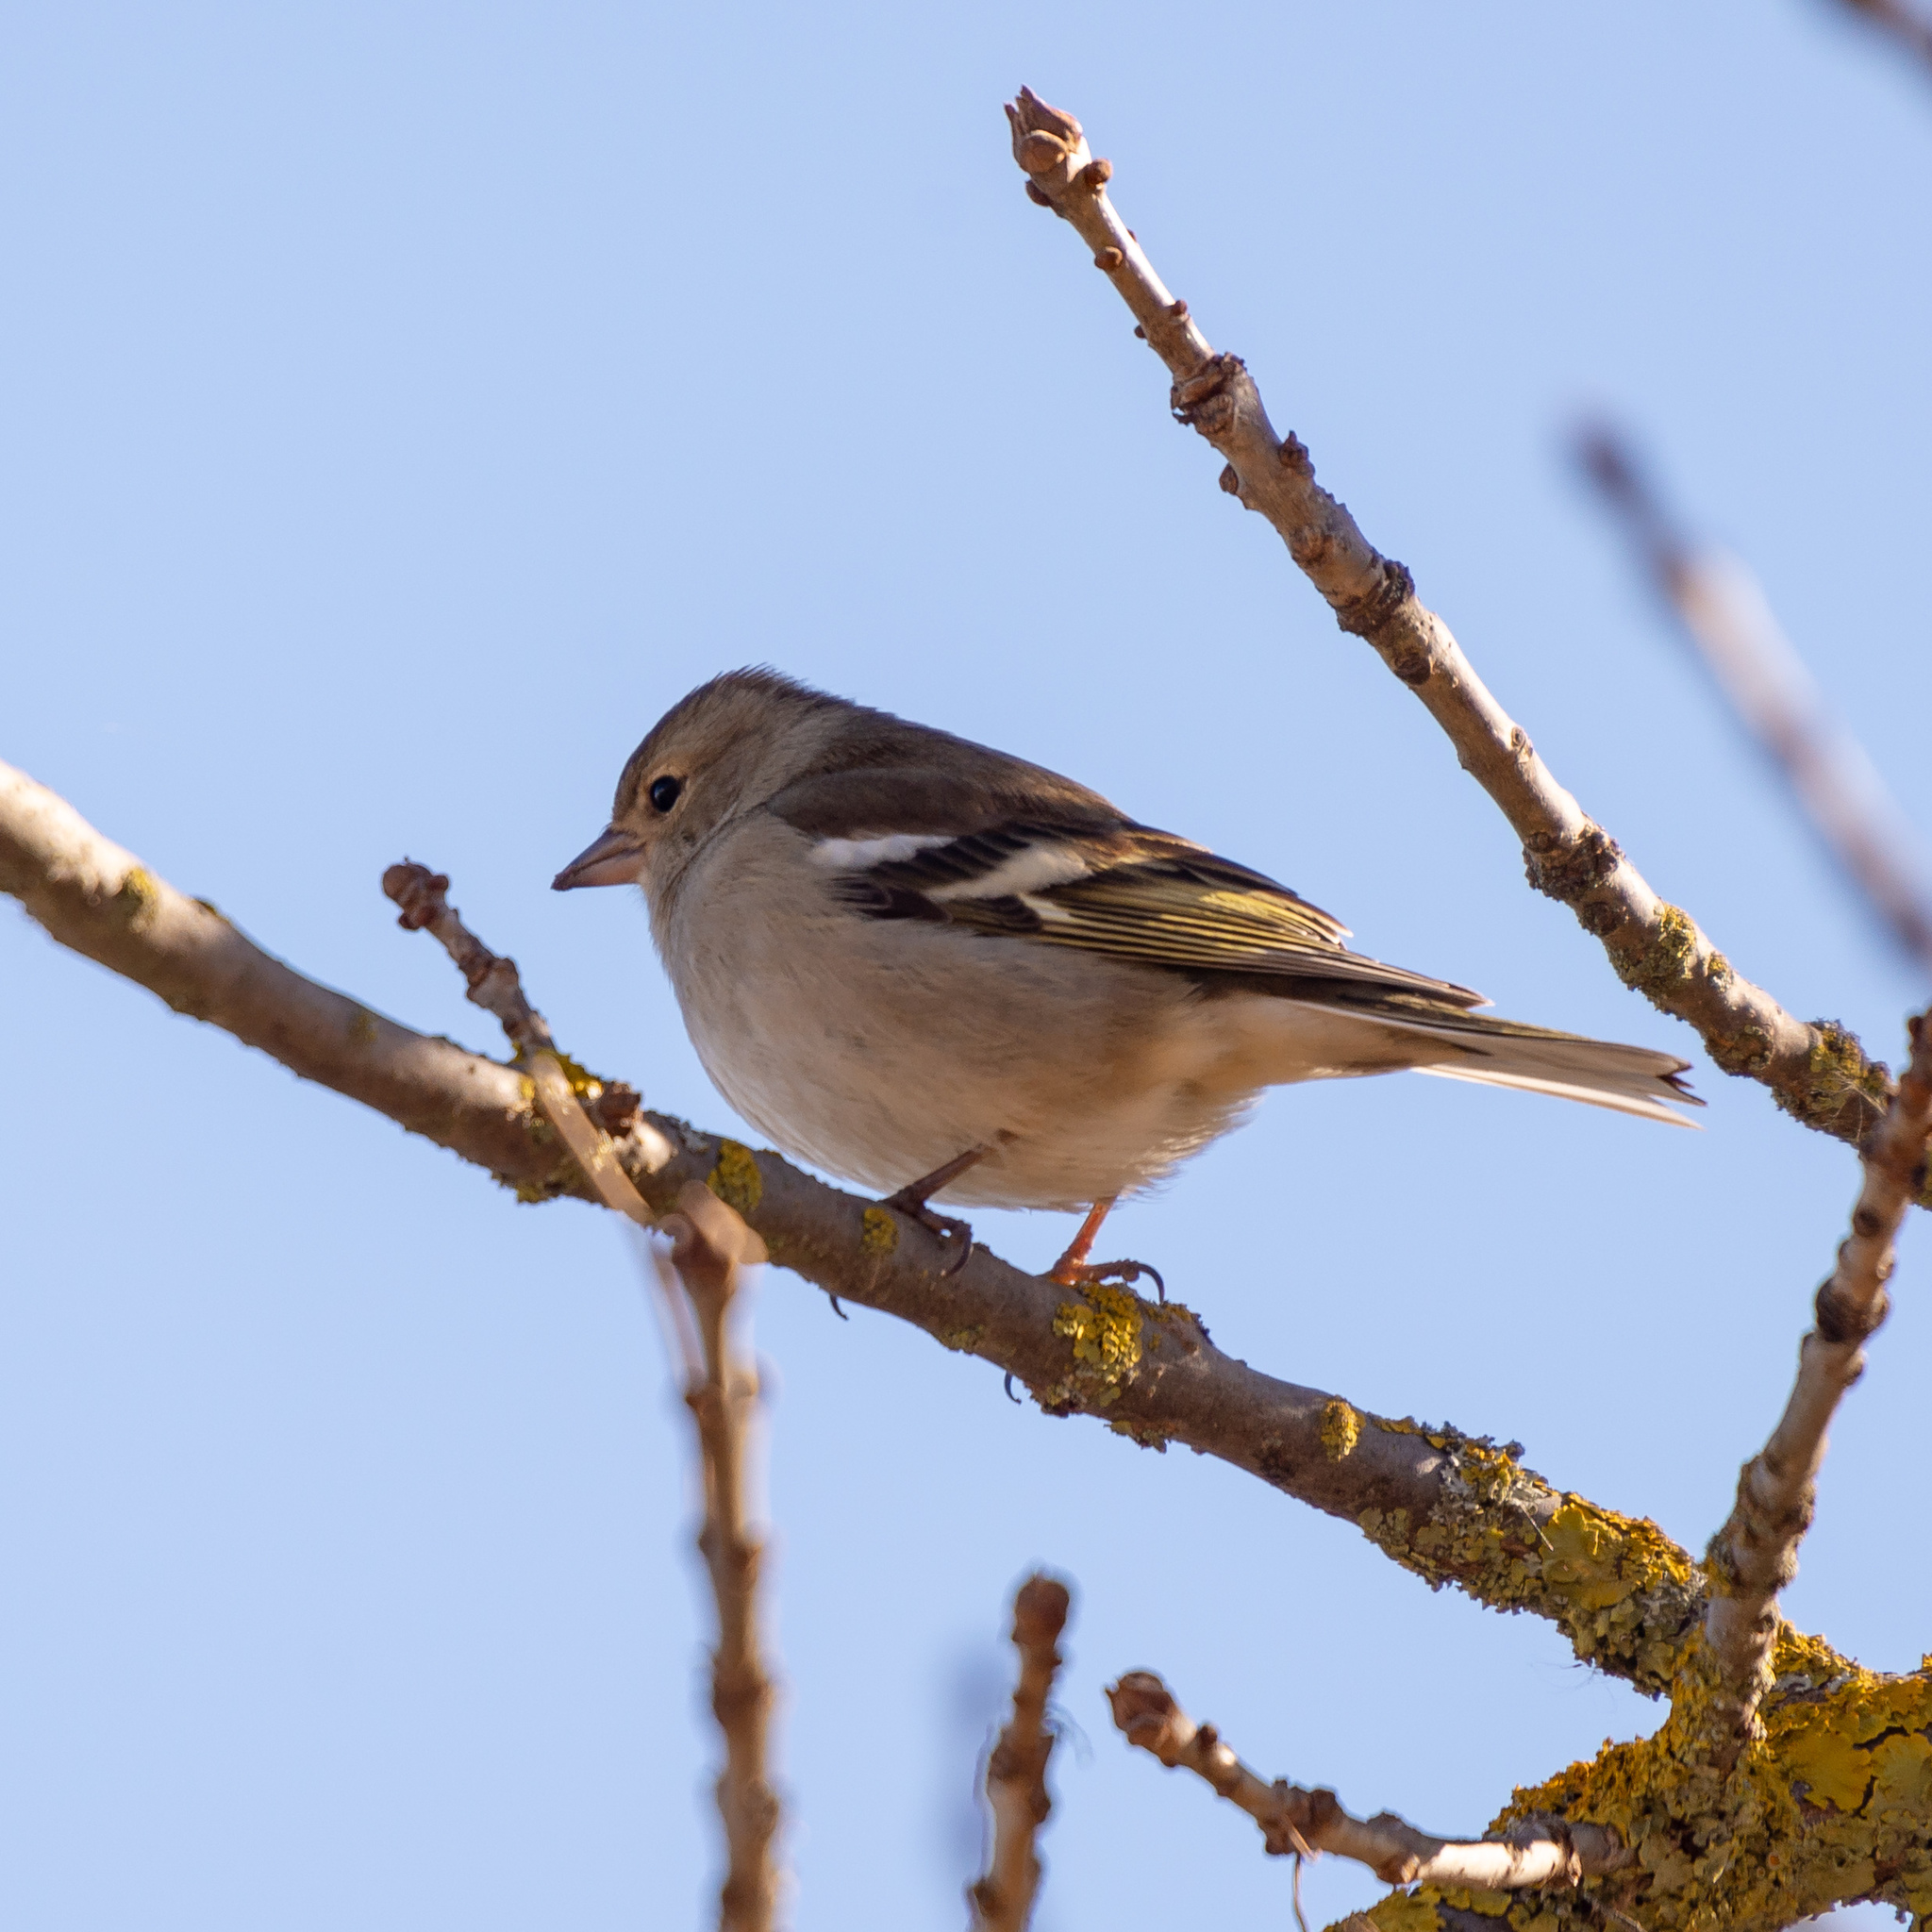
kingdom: Animalia
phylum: Chordata
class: Aves
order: Passeriformes
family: Fringillidae
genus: Fringilla
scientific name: Fringilla coelebs
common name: Common chaffinch
